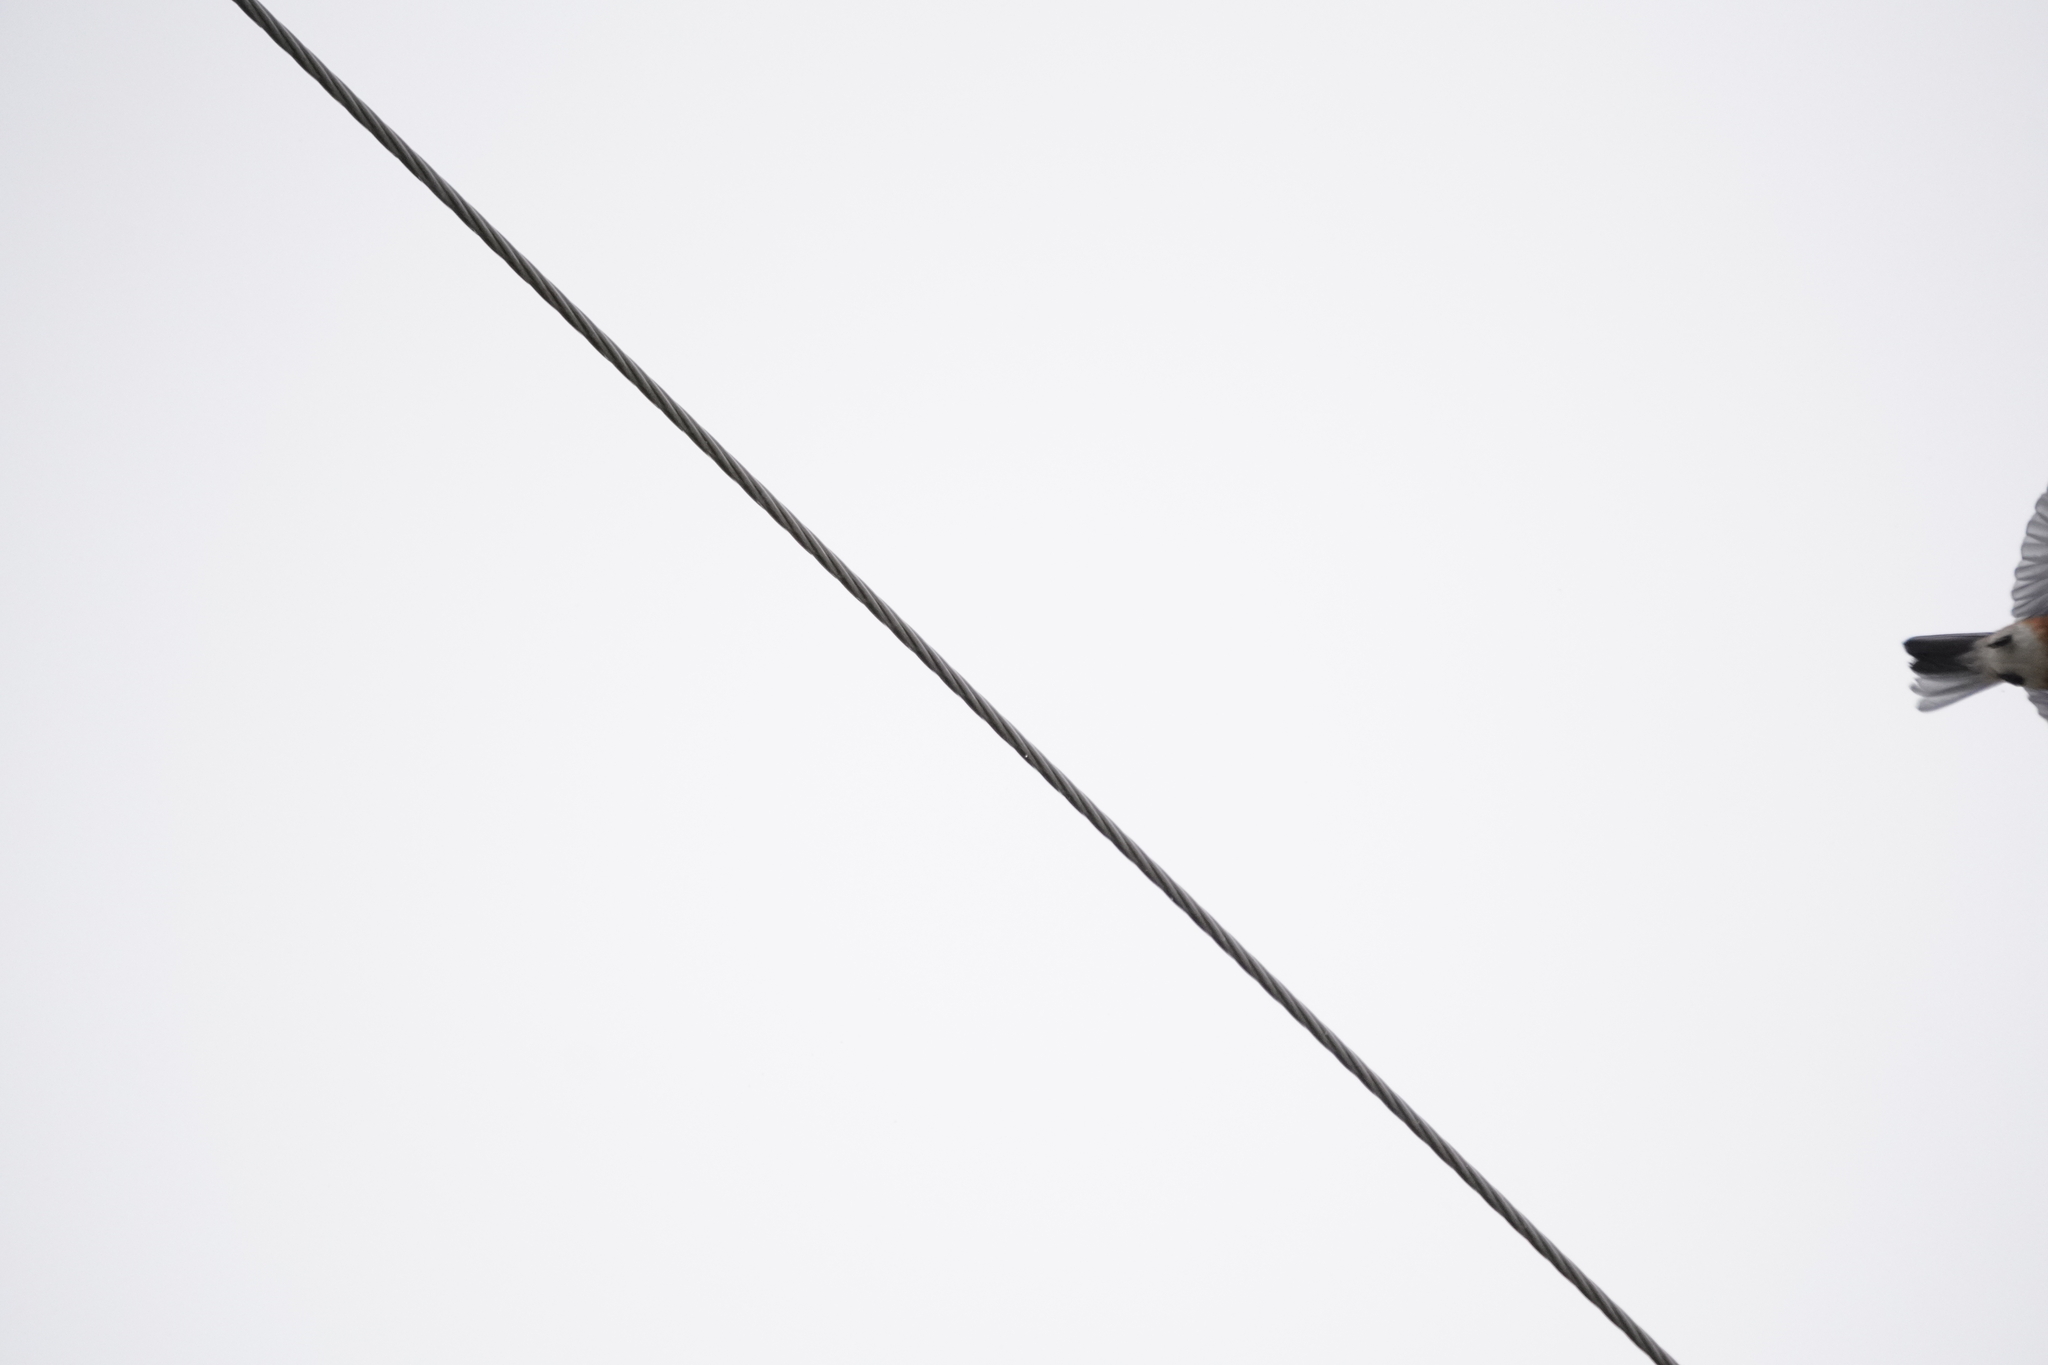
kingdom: Animalia
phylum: Chordata
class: Aves
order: Passeriformes
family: Turdidae
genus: Sialia
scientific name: Sialia sialis
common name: Eastern bluebird
